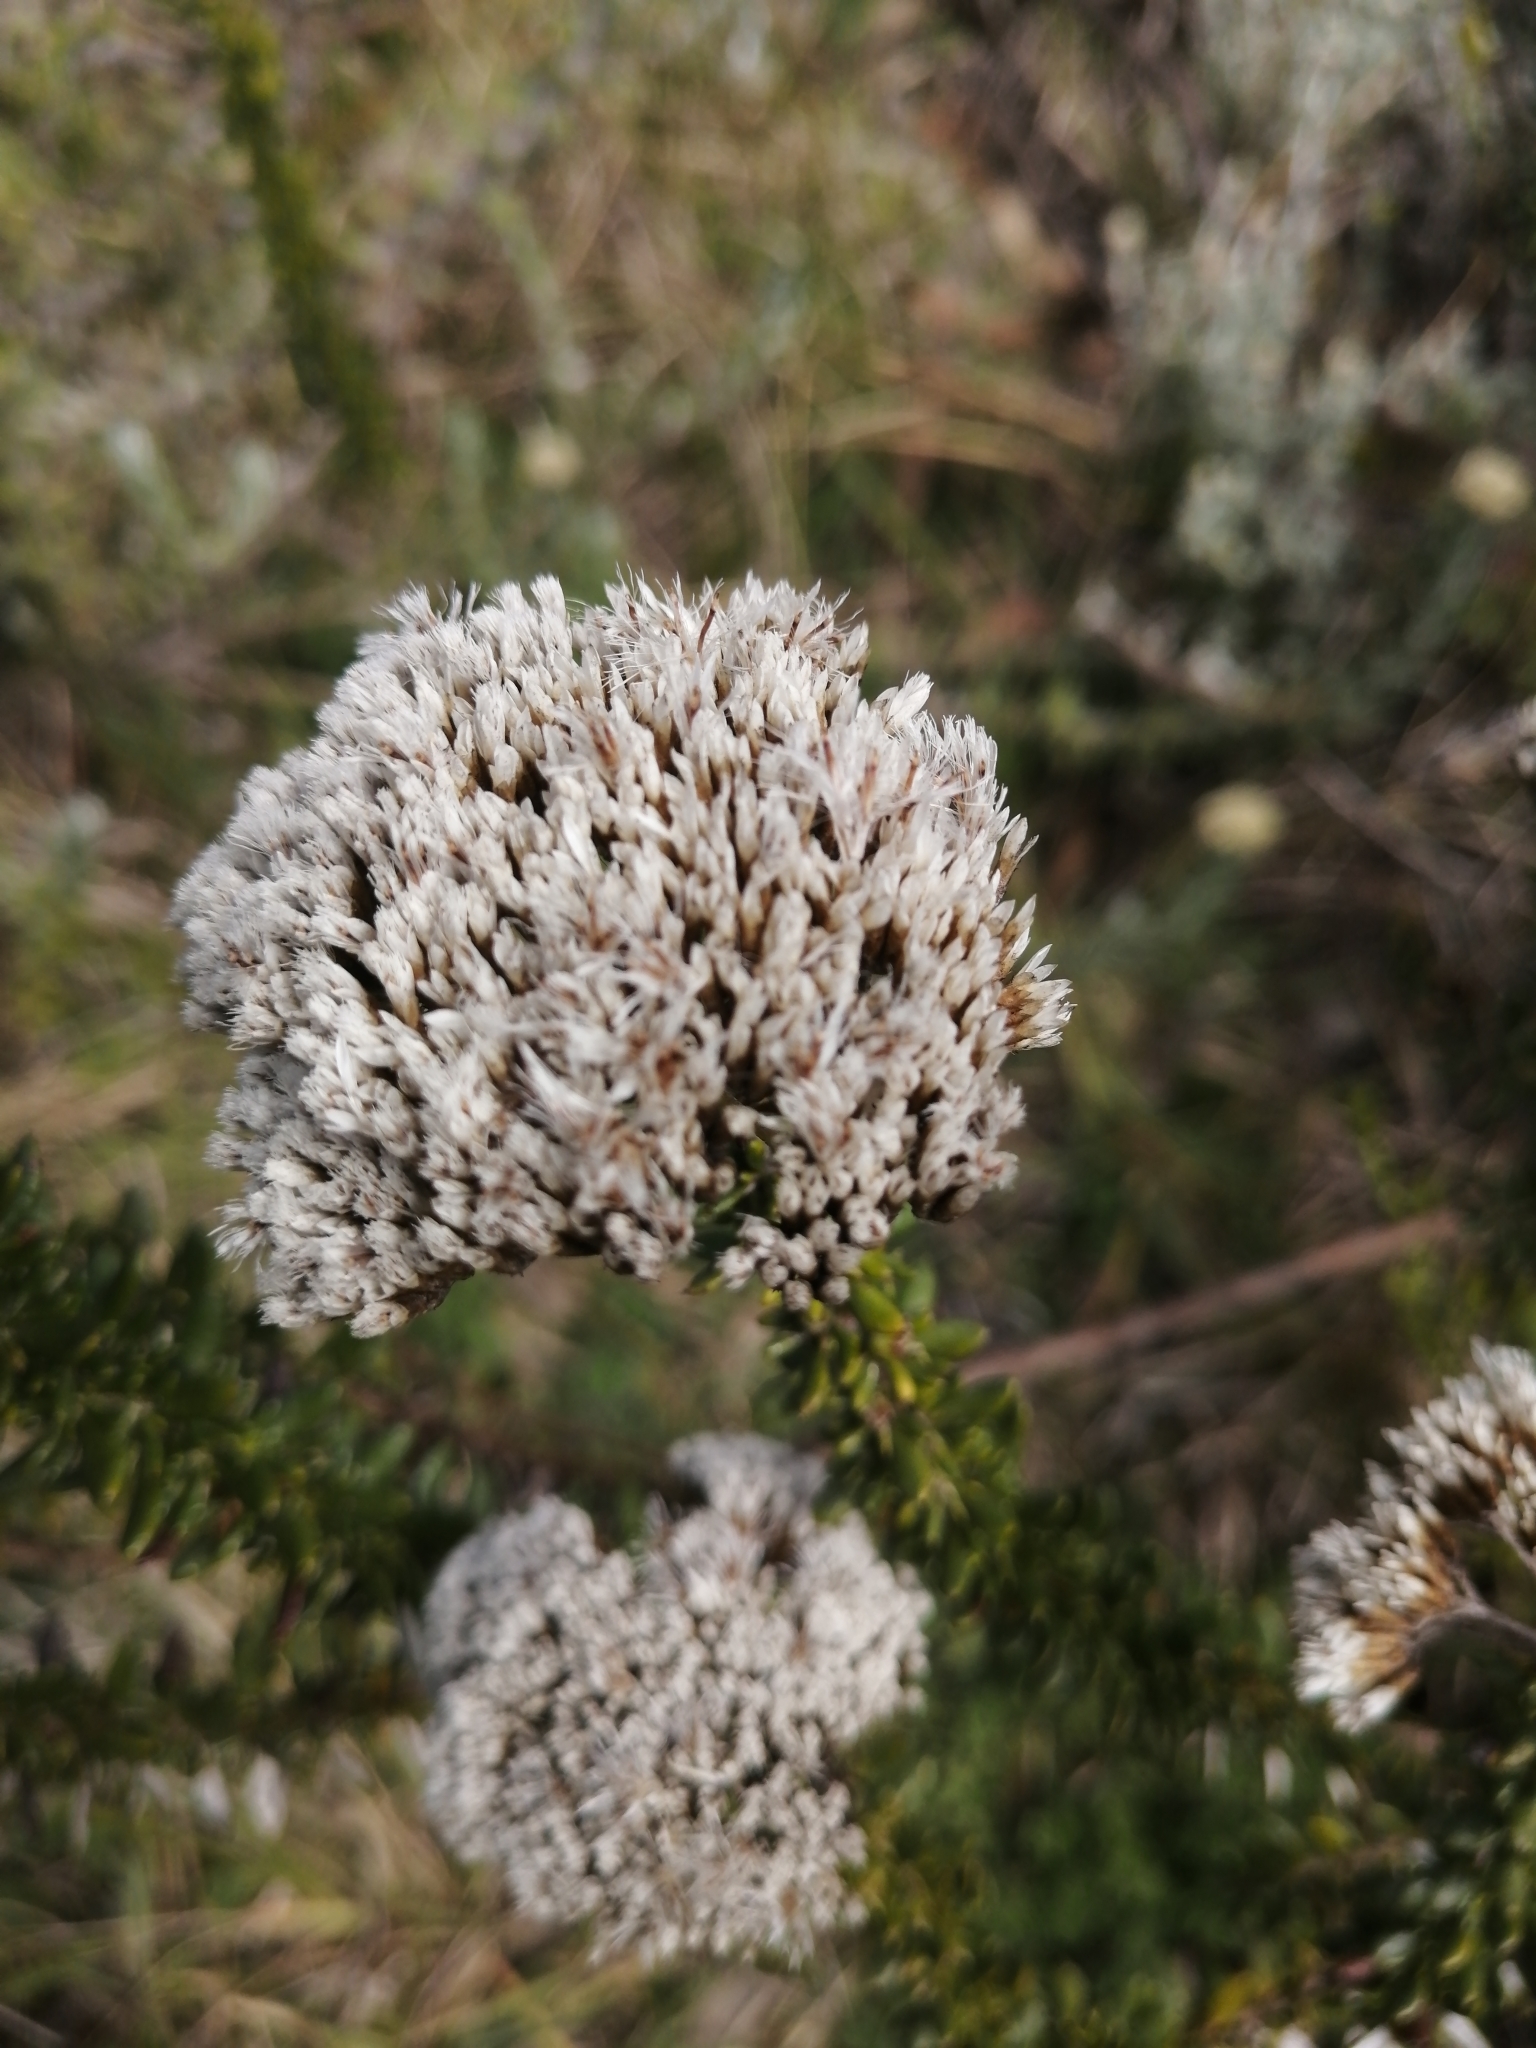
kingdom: Plantae
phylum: Tracheophyta
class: Magnoliopsida
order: Asterales
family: Asteraceae
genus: Metalasia
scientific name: Metalasia densa
